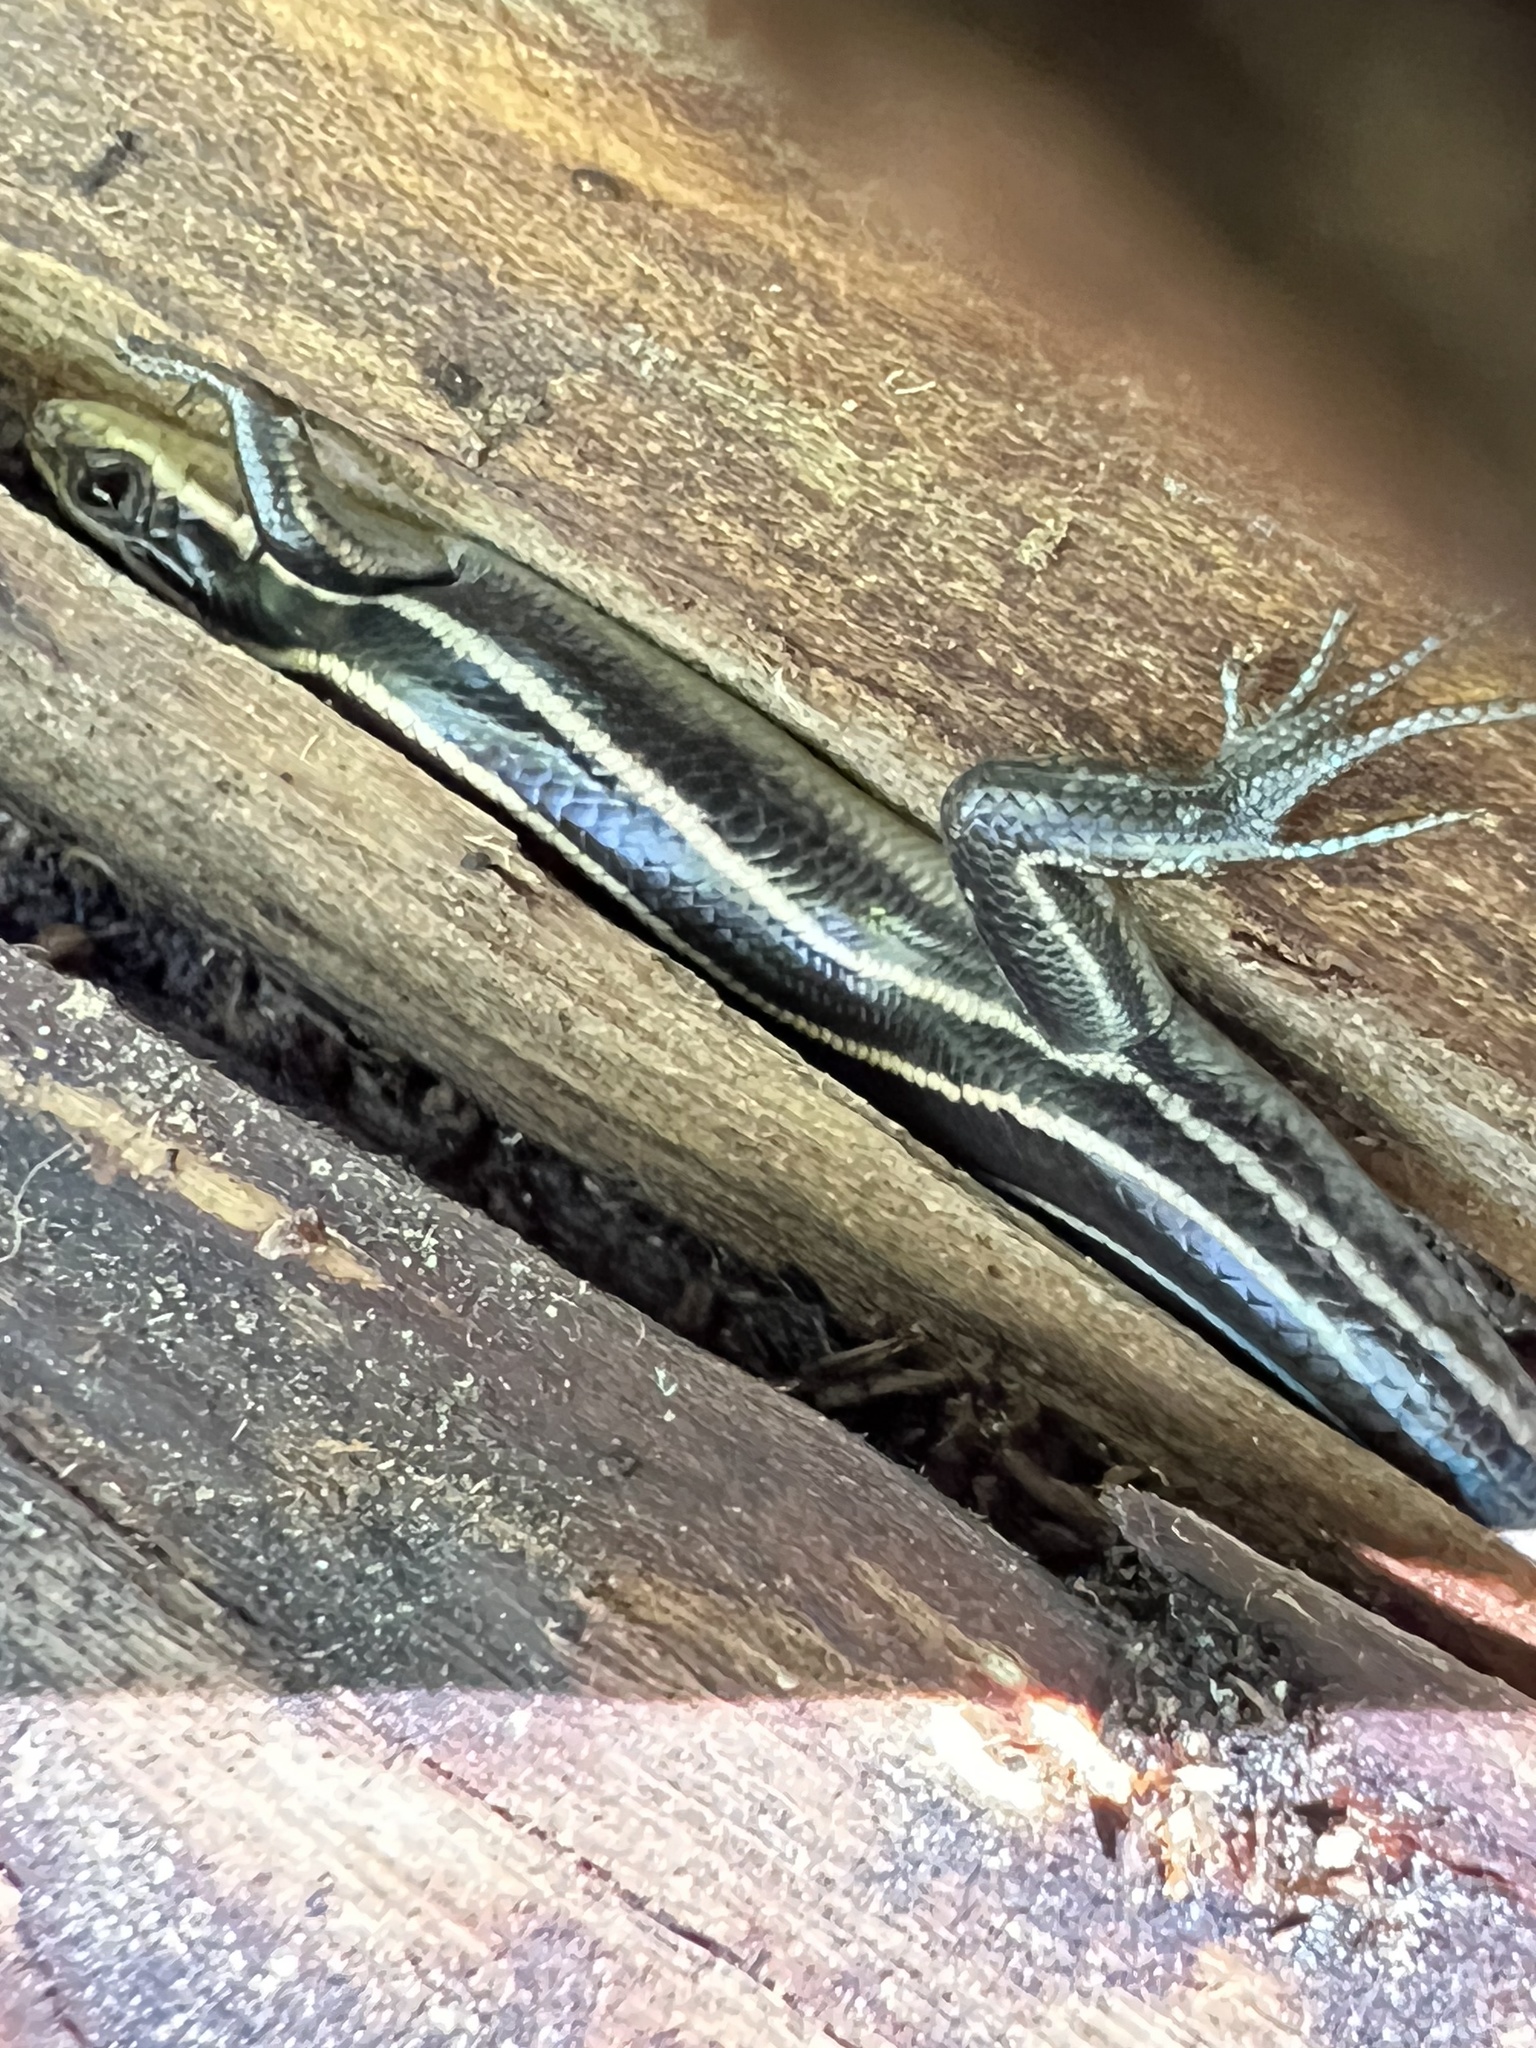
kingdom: Animalia
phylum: Chordata
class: Squamata
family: Scincidae
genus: Plestiodon
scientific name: Plestiodon fasciatus
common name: Five-lined skink
